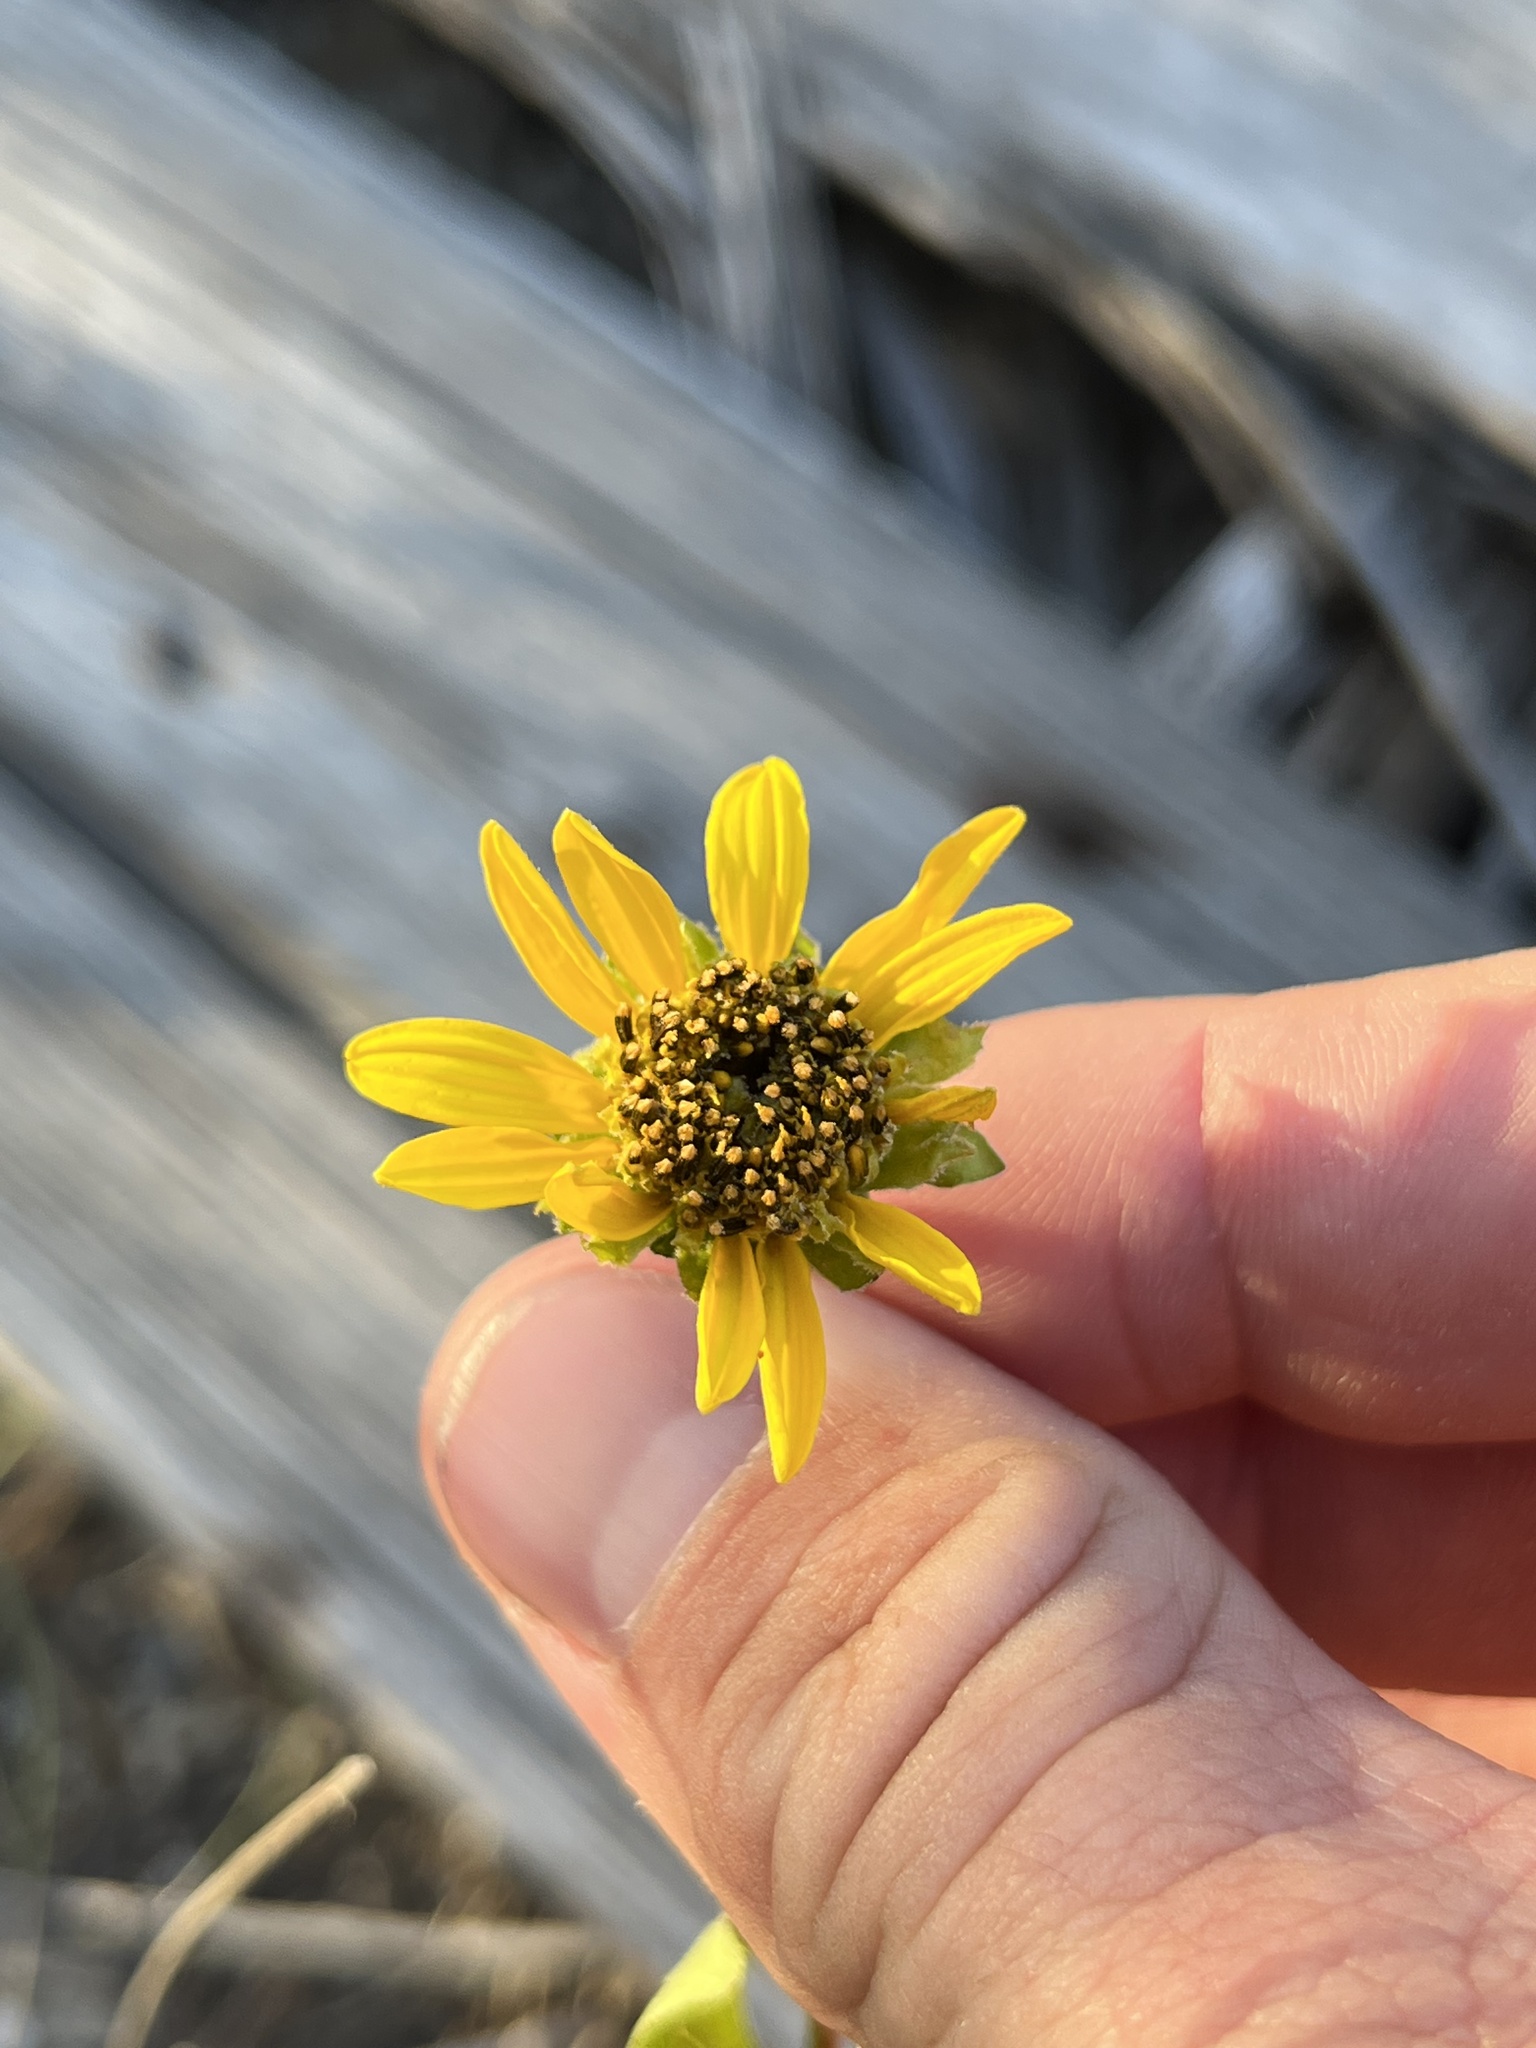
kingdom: Plantae
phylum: Tracheophyta
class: Magnoliopsida
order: Asterales
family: Asteraceae
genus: Verbesina
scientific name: Verbesina lindheimeri
